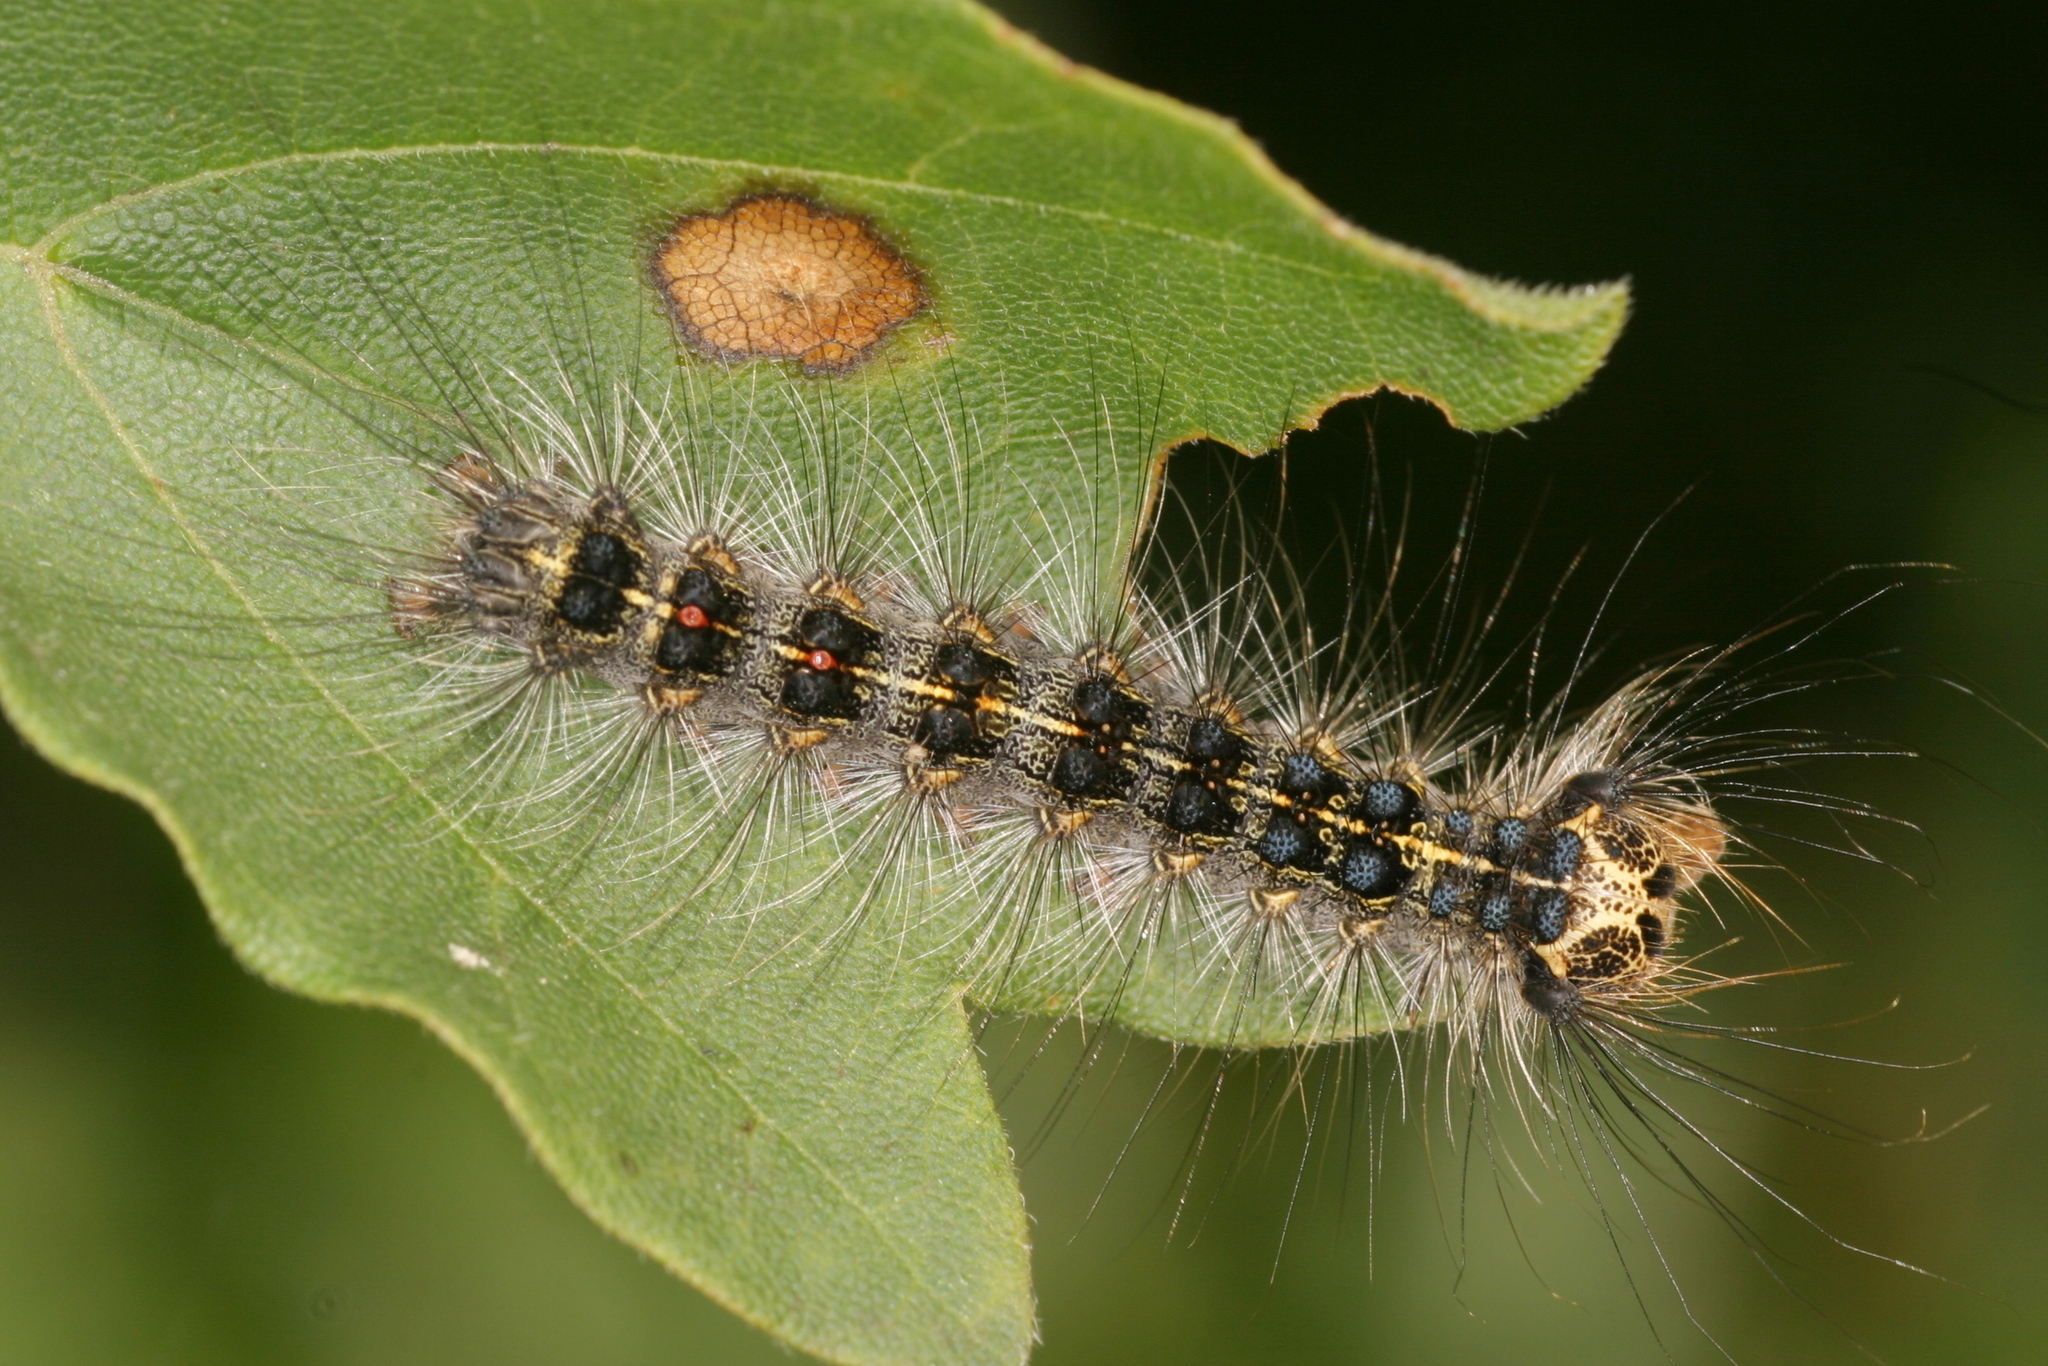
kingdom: Animalia
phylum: Arthropoda
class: Insecta
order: Lepidoptera
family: Erebidae
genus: Lymantria
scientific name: Lymantria dispar
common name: Gypsy moth
